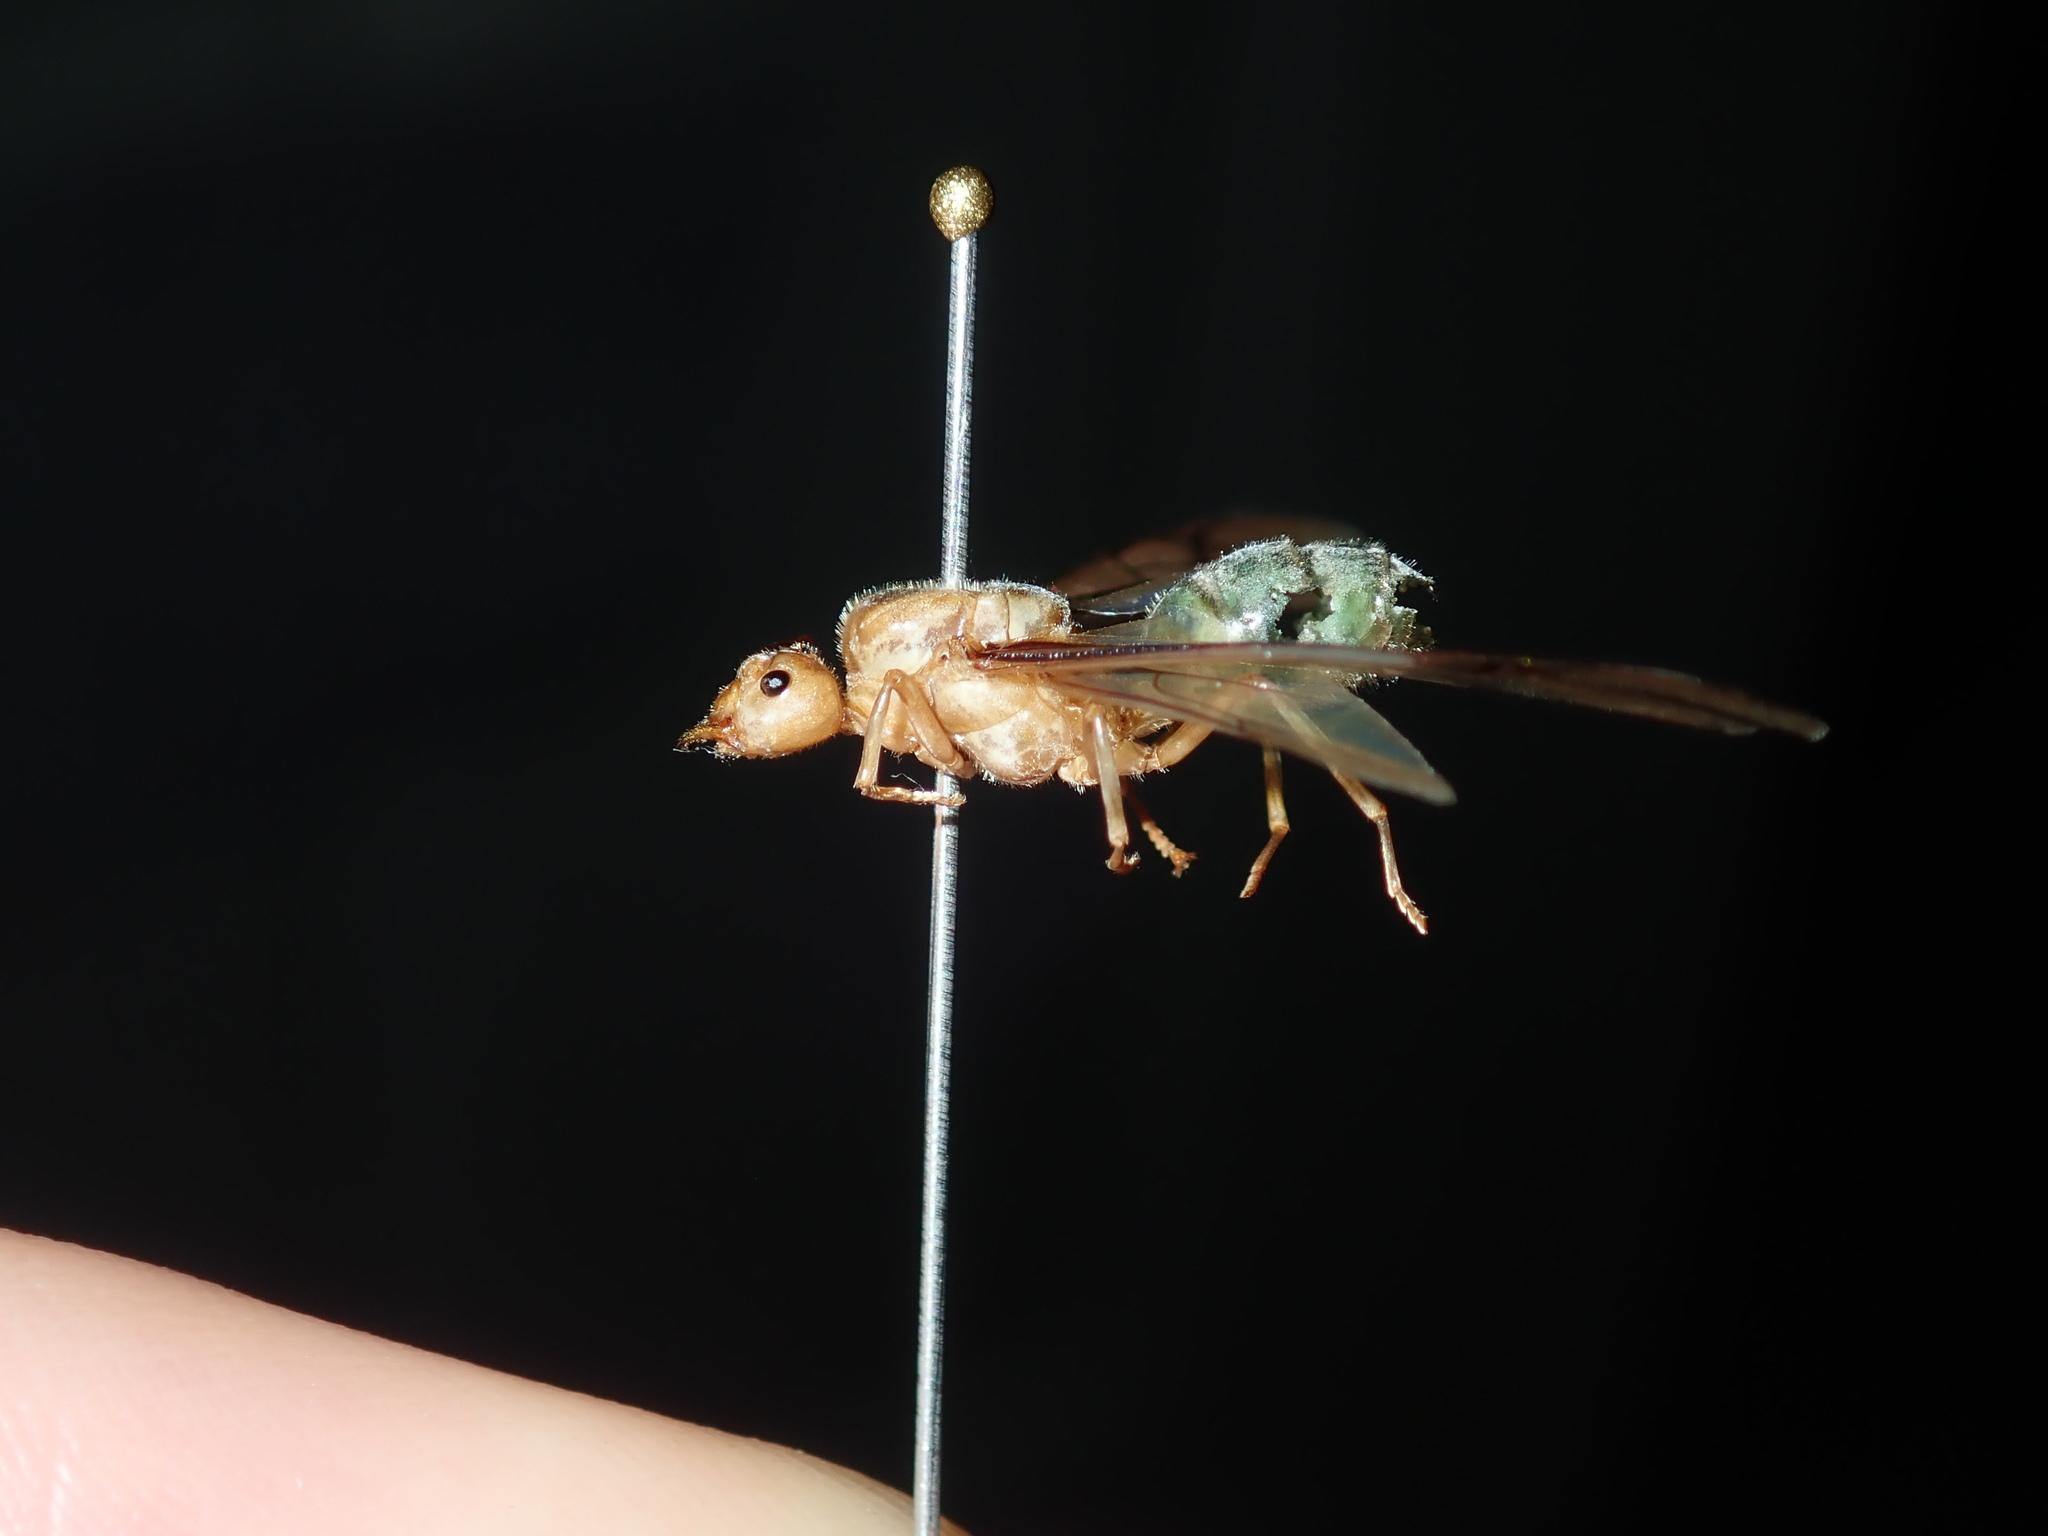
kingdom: Animalia
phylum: Arthropoda
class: Insecta
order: Hymenoptera
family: Formicidae
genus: Oecophylla
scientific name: Oecophylla smaragdina
